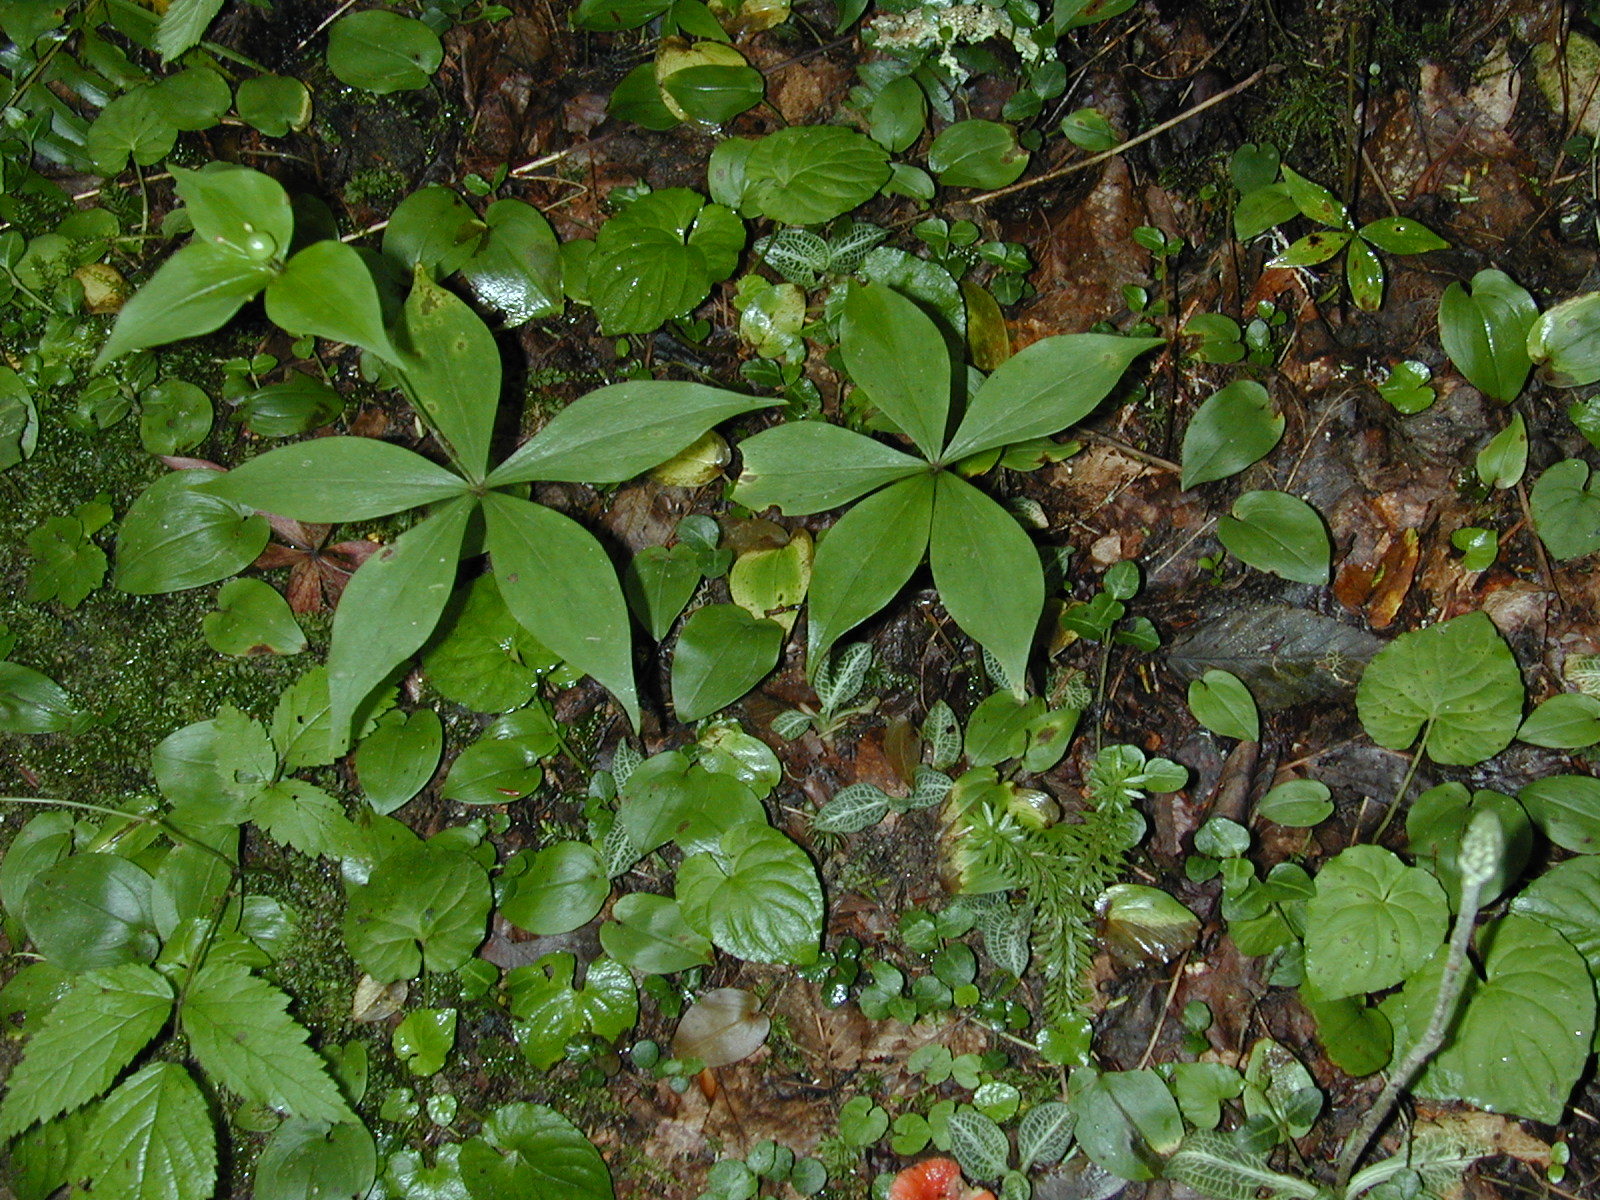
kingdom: Plantae
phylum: Tracheophyta
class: Liliopsida
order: Liliales
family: Liliaceae
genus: Medeola
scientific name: Medeola virginiana
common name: Indian cucumber-root
